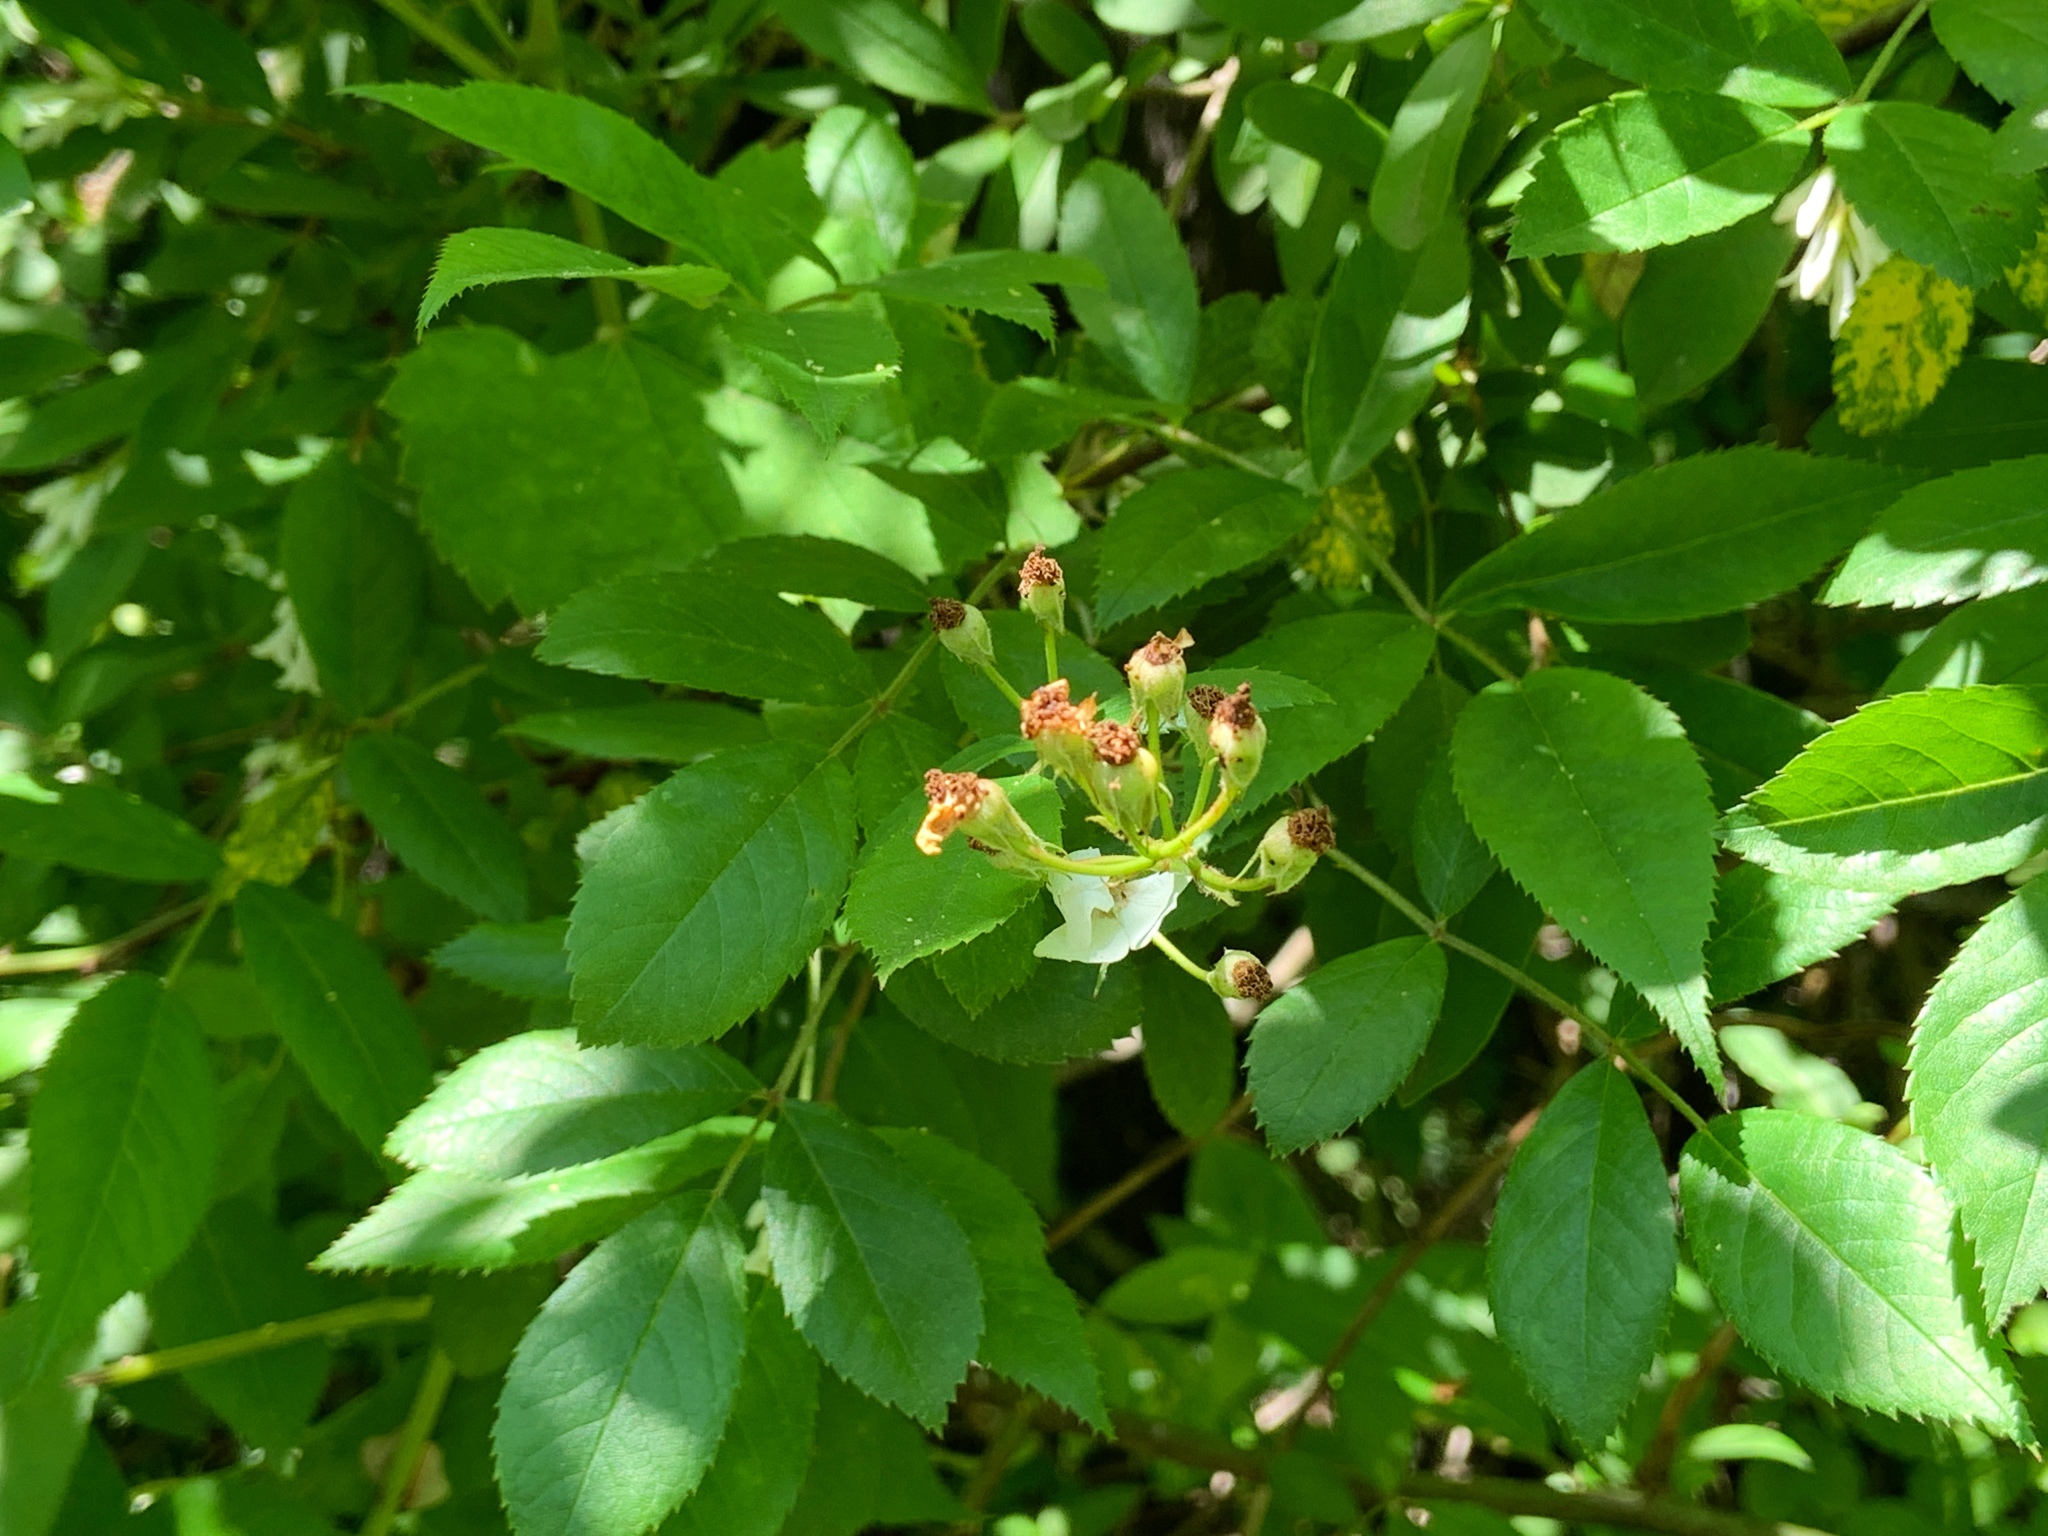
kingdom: Plantae
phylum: Tracheophyta
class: Magnoliopsida
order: Rosales
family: Rosaceae
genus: Rosa
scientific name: Rosa multiflora
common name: Multiflora rose
